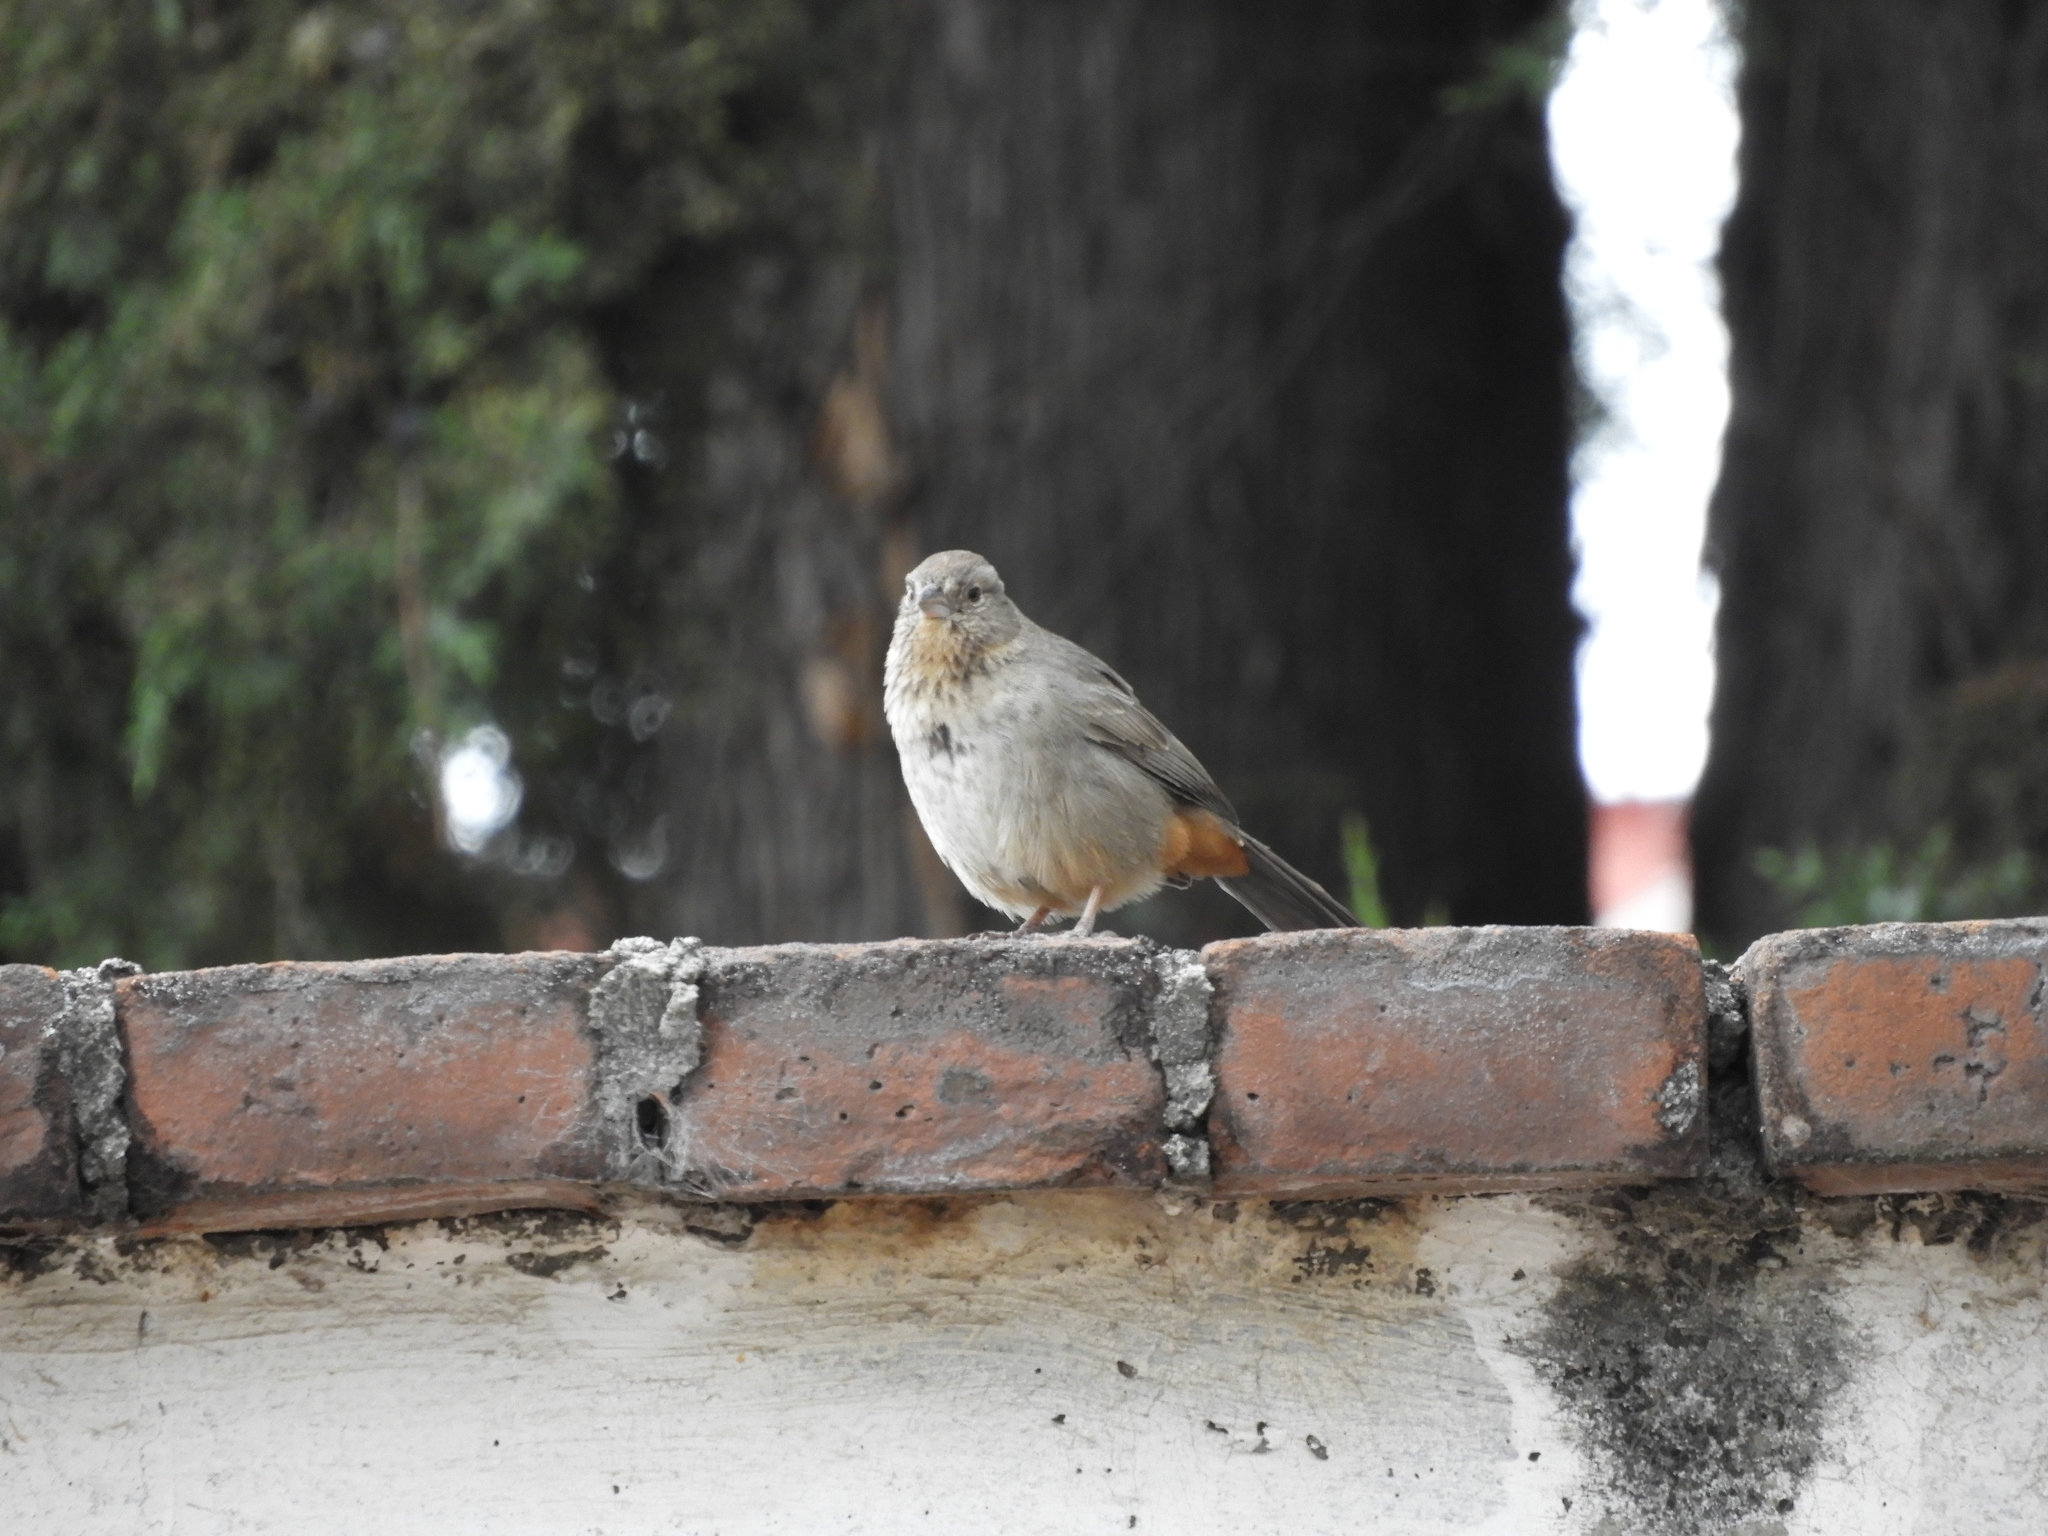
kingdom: Animalia
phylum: Chordata
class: Aves
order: Passeriformes
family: Passerellidae
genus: Melozone
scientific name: Melozone fusca
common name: Canyon towhee
